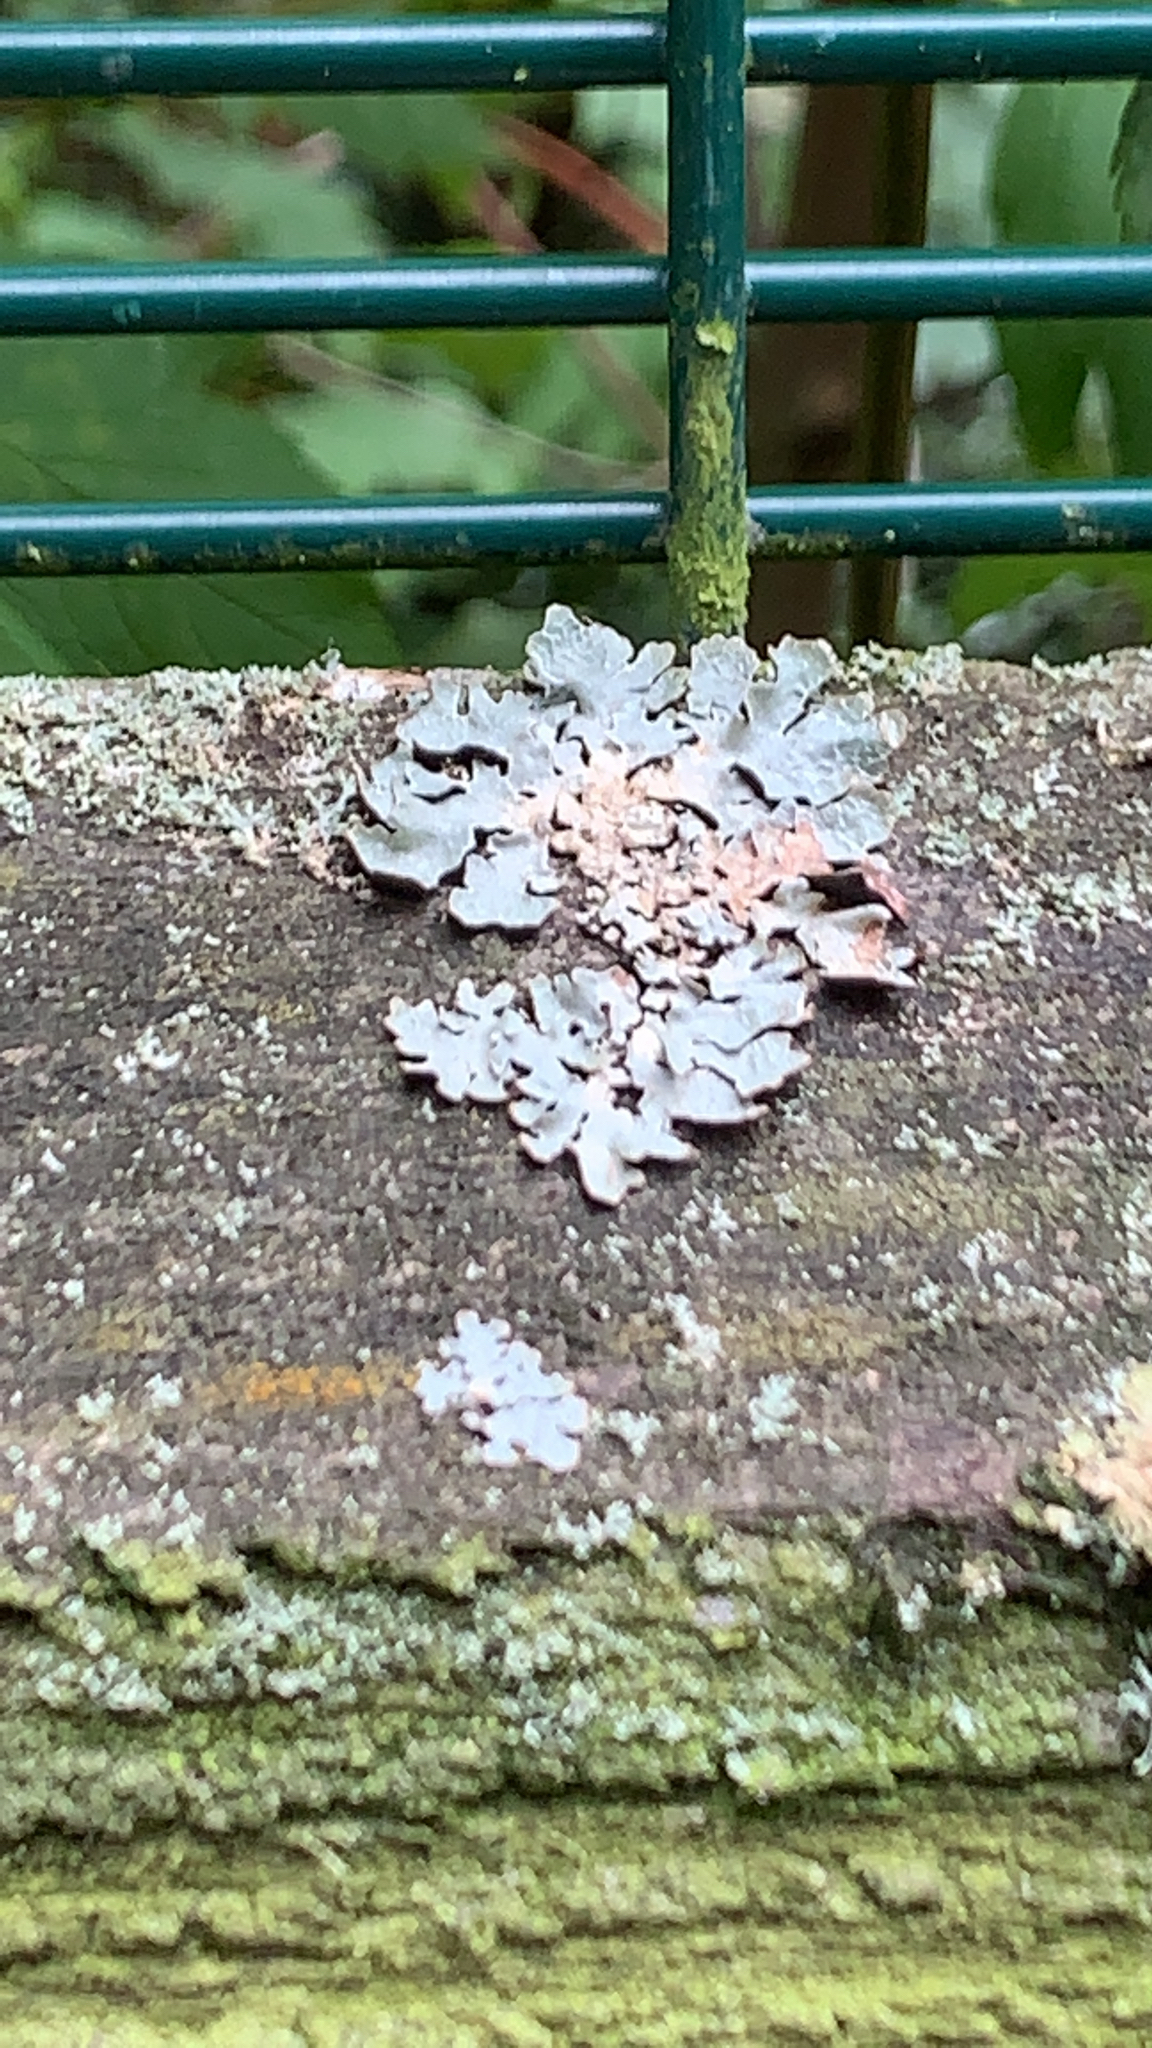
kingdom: Fungi
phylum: Ascomycota
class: Lecanoromycetes
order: Lecanorales
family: Parmeliaceae
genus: Parmelia
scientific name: Parmelia sulcata
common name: Netted shield lichen
